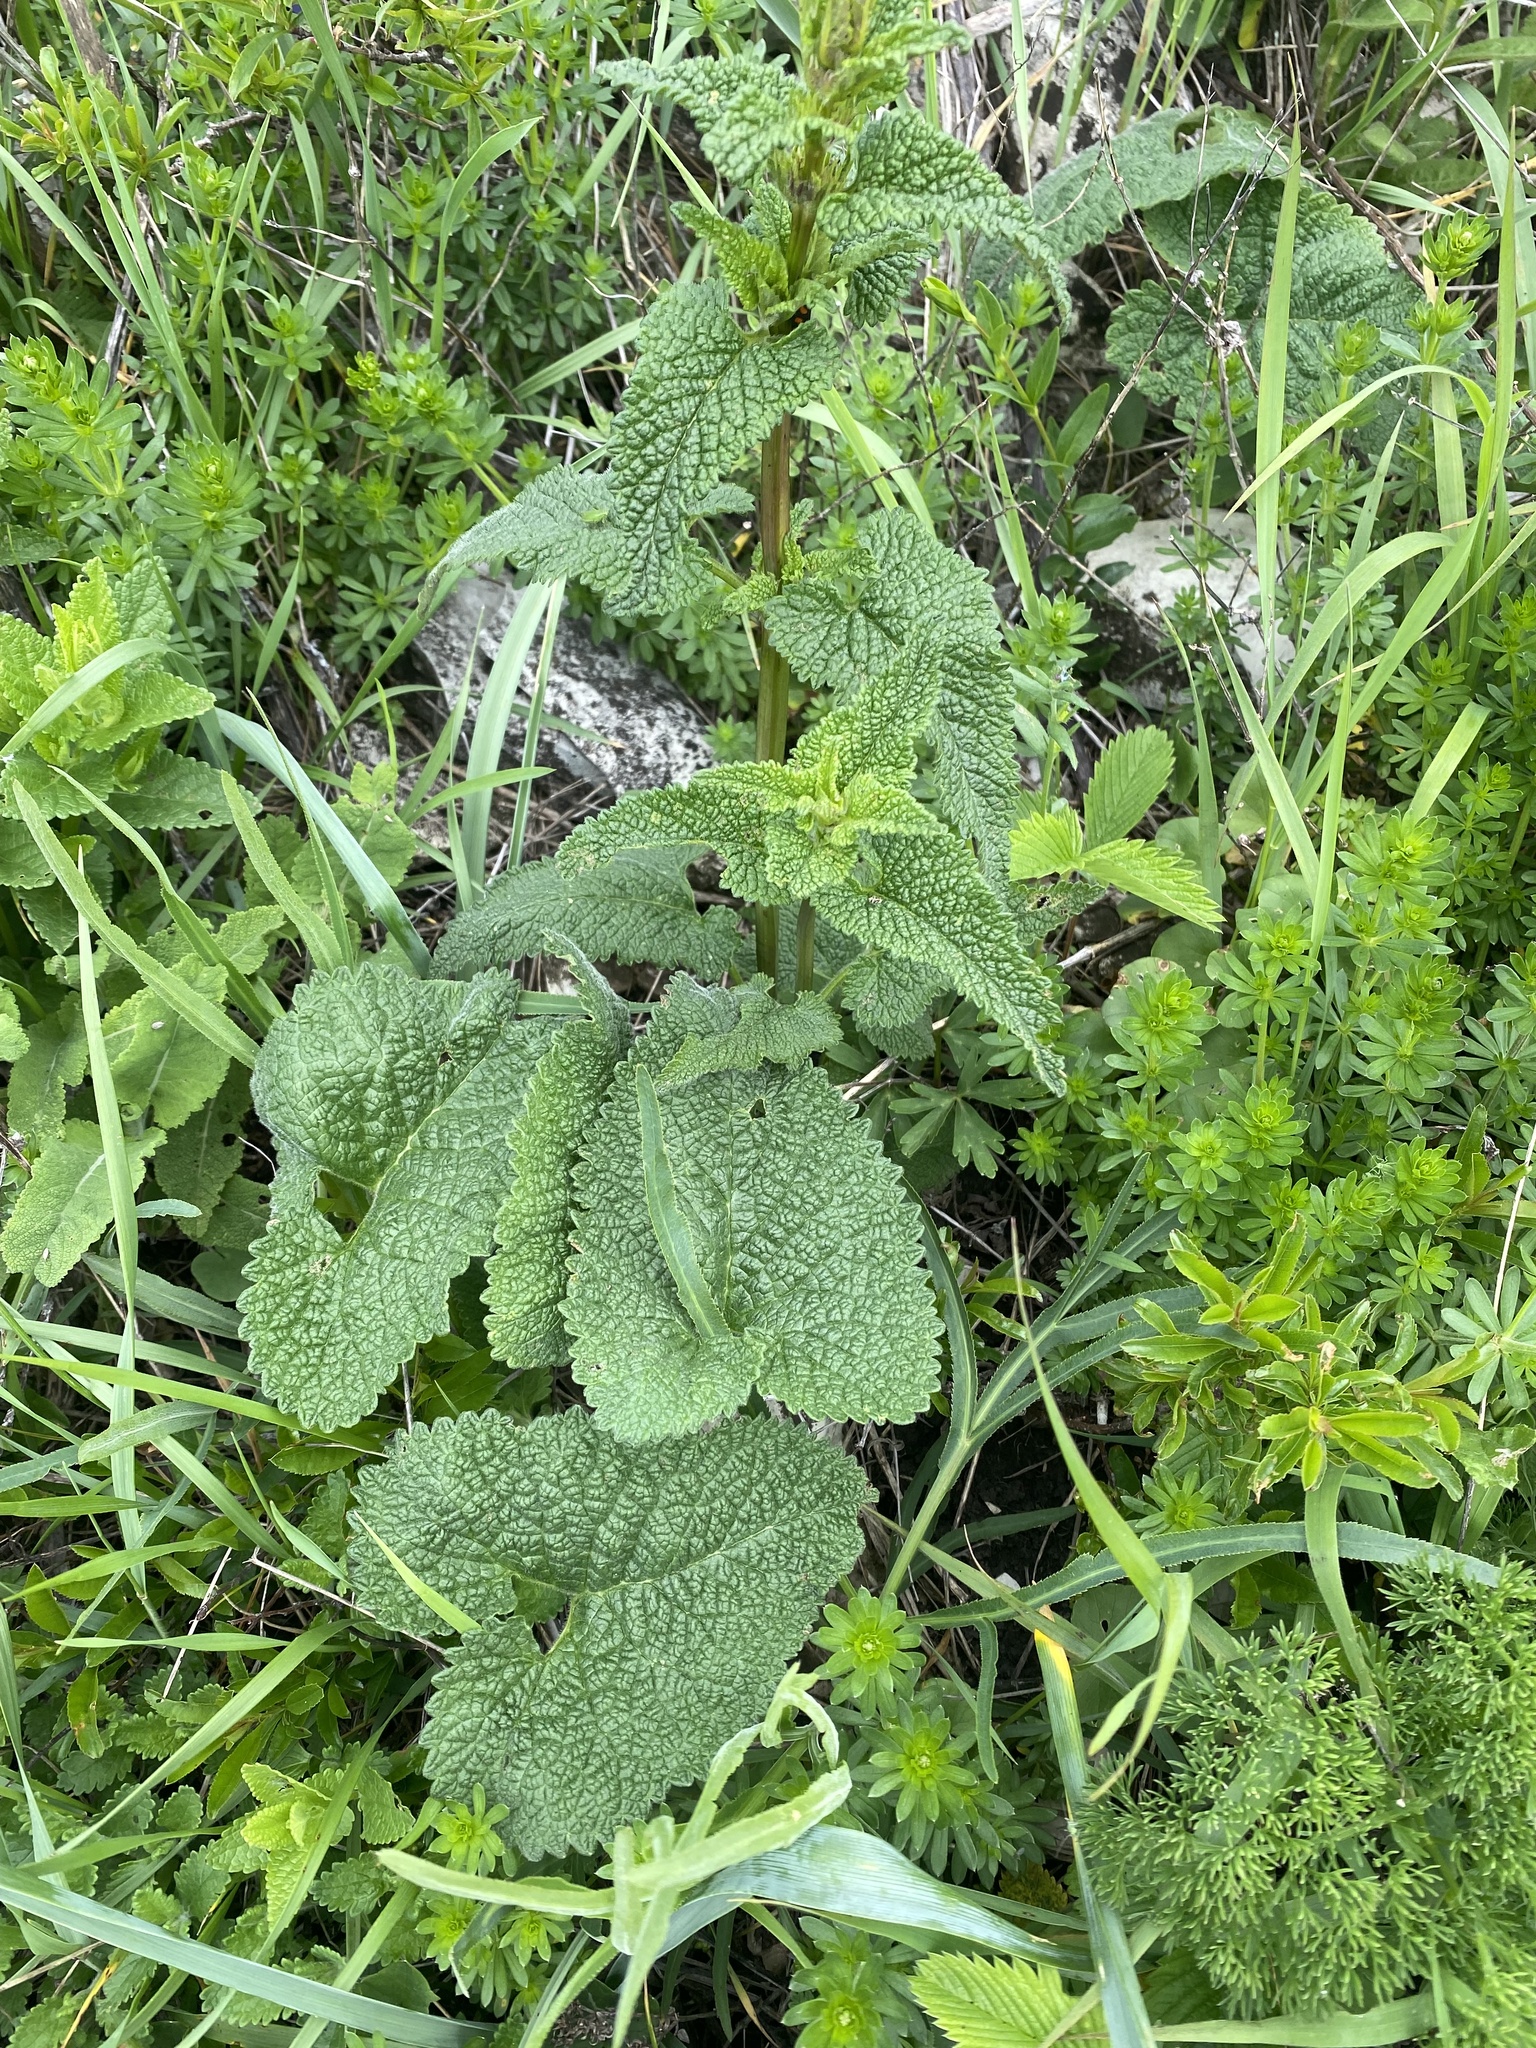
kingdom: Plantae
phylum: Tracheophyta
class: Magnoliopsida
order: Lamiales
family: Lamiaceae
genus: Phlomoides
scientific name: Phlomoides tuberosa
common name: Tuberous jerusalem sage
